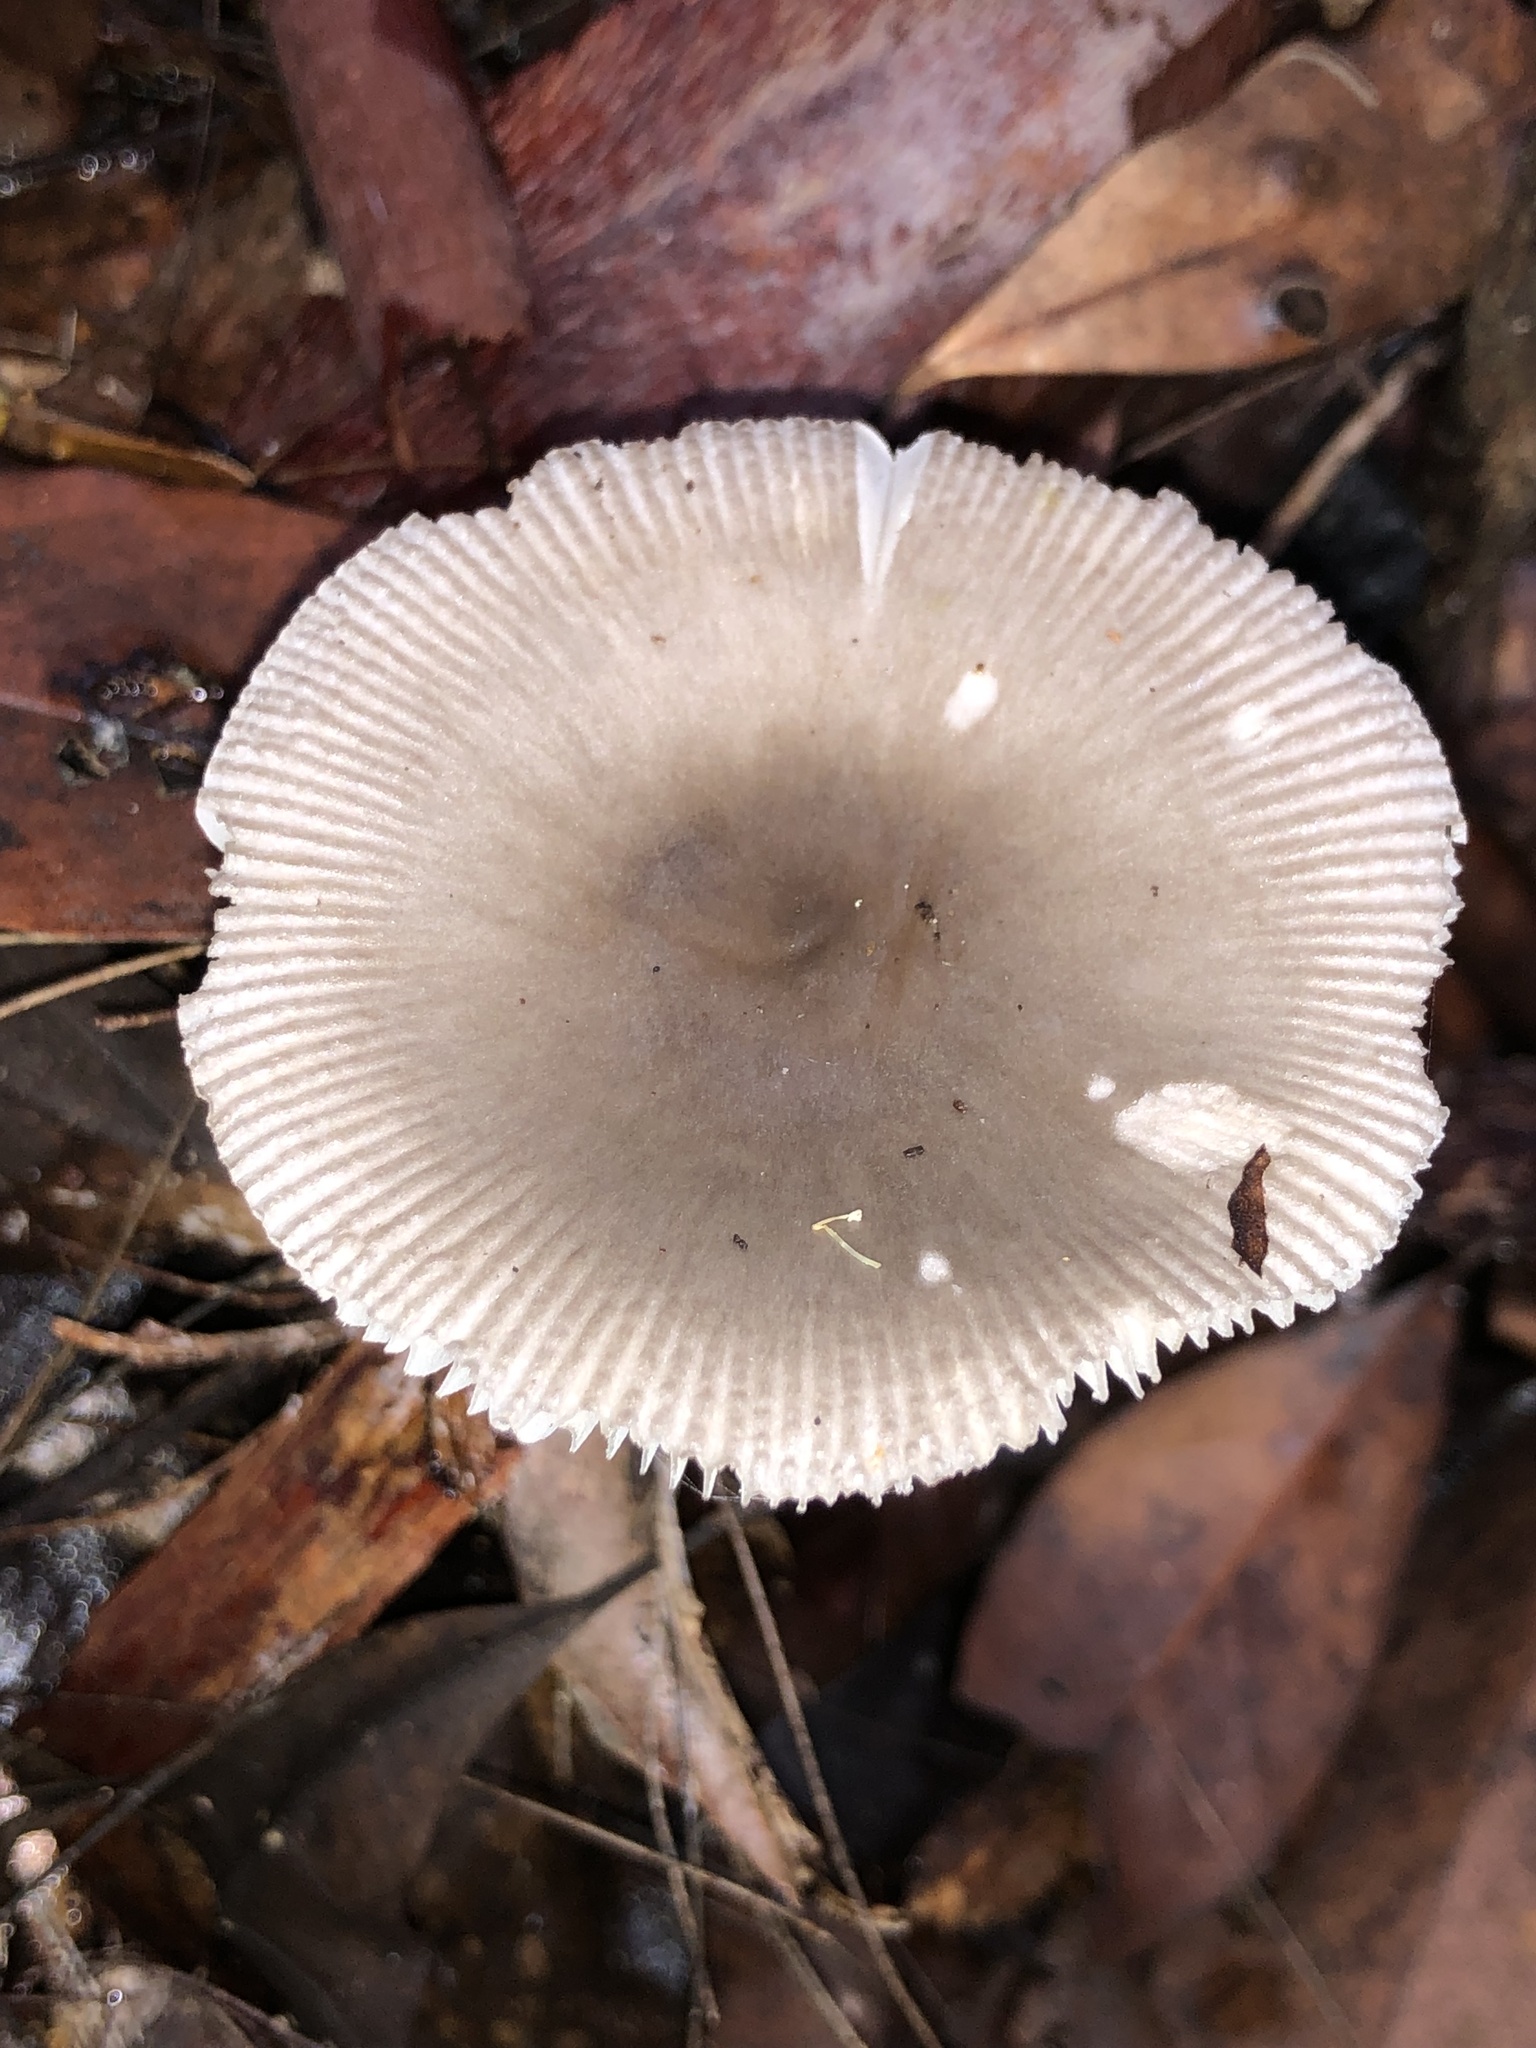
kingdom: Fungi
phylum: Basidiomycota
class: Agaricomycetes
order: Agaricales
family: Amanitaceae
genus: Amanita
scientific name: Amanita cheelii
